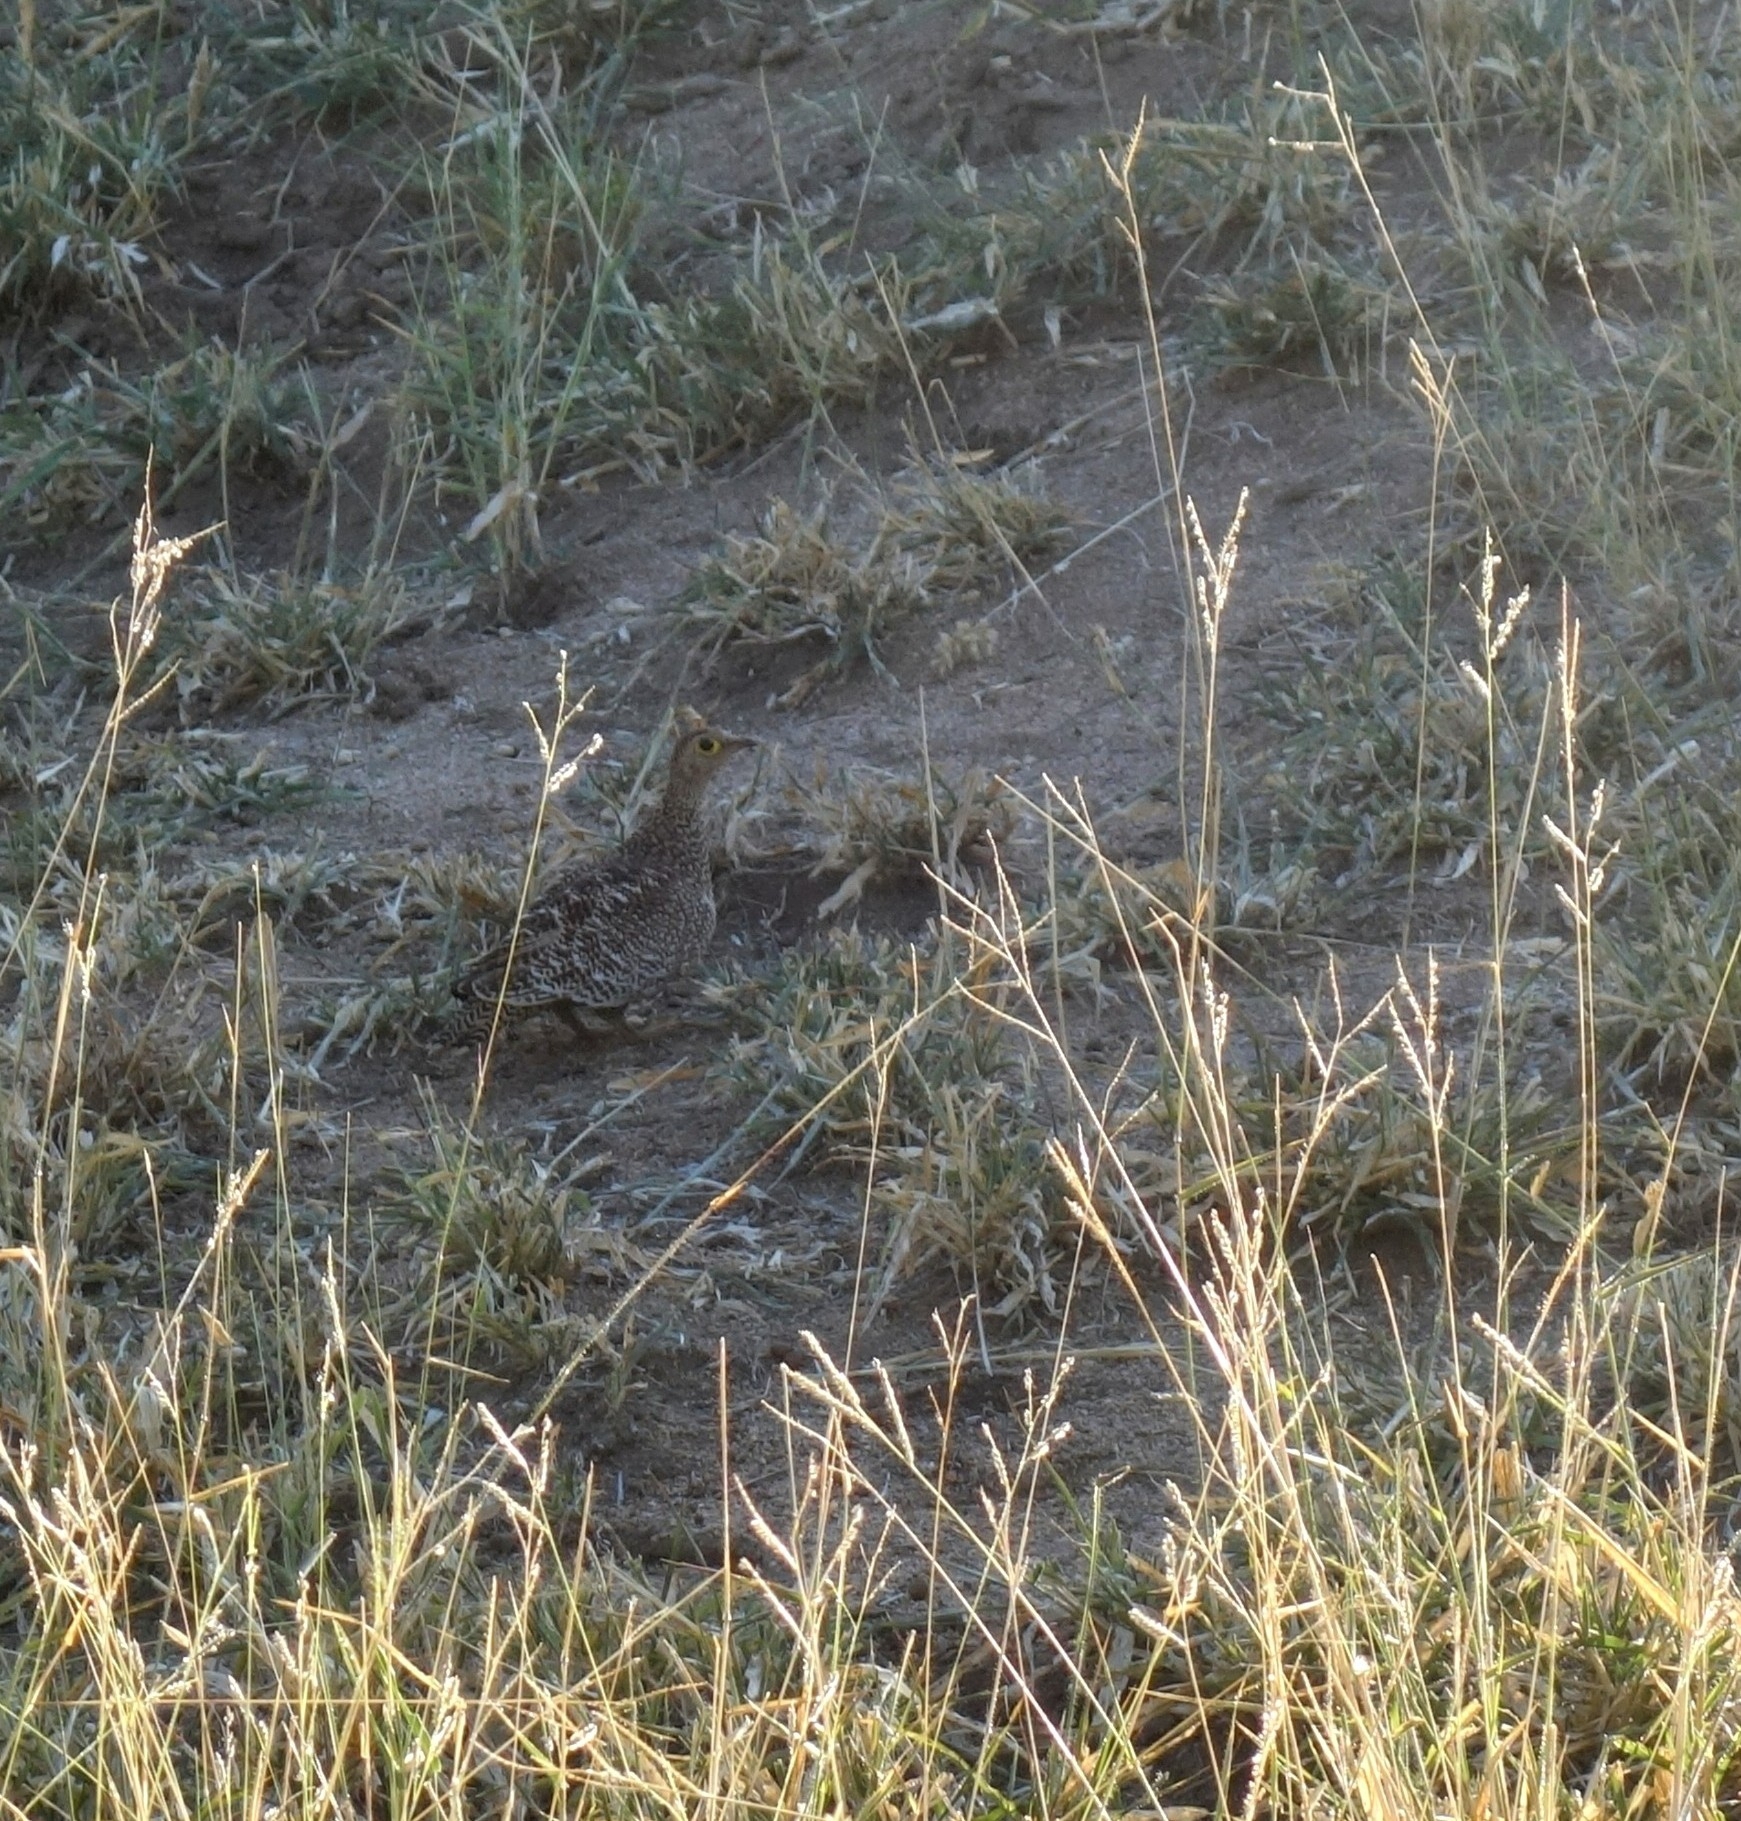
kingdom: Animalia
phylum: Chordata
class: Aves
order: Pteroclidiformes
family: Pteroclididae
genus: Pterocles
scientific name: Pterocles bicinctus
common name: Double-banded sandgrouse
